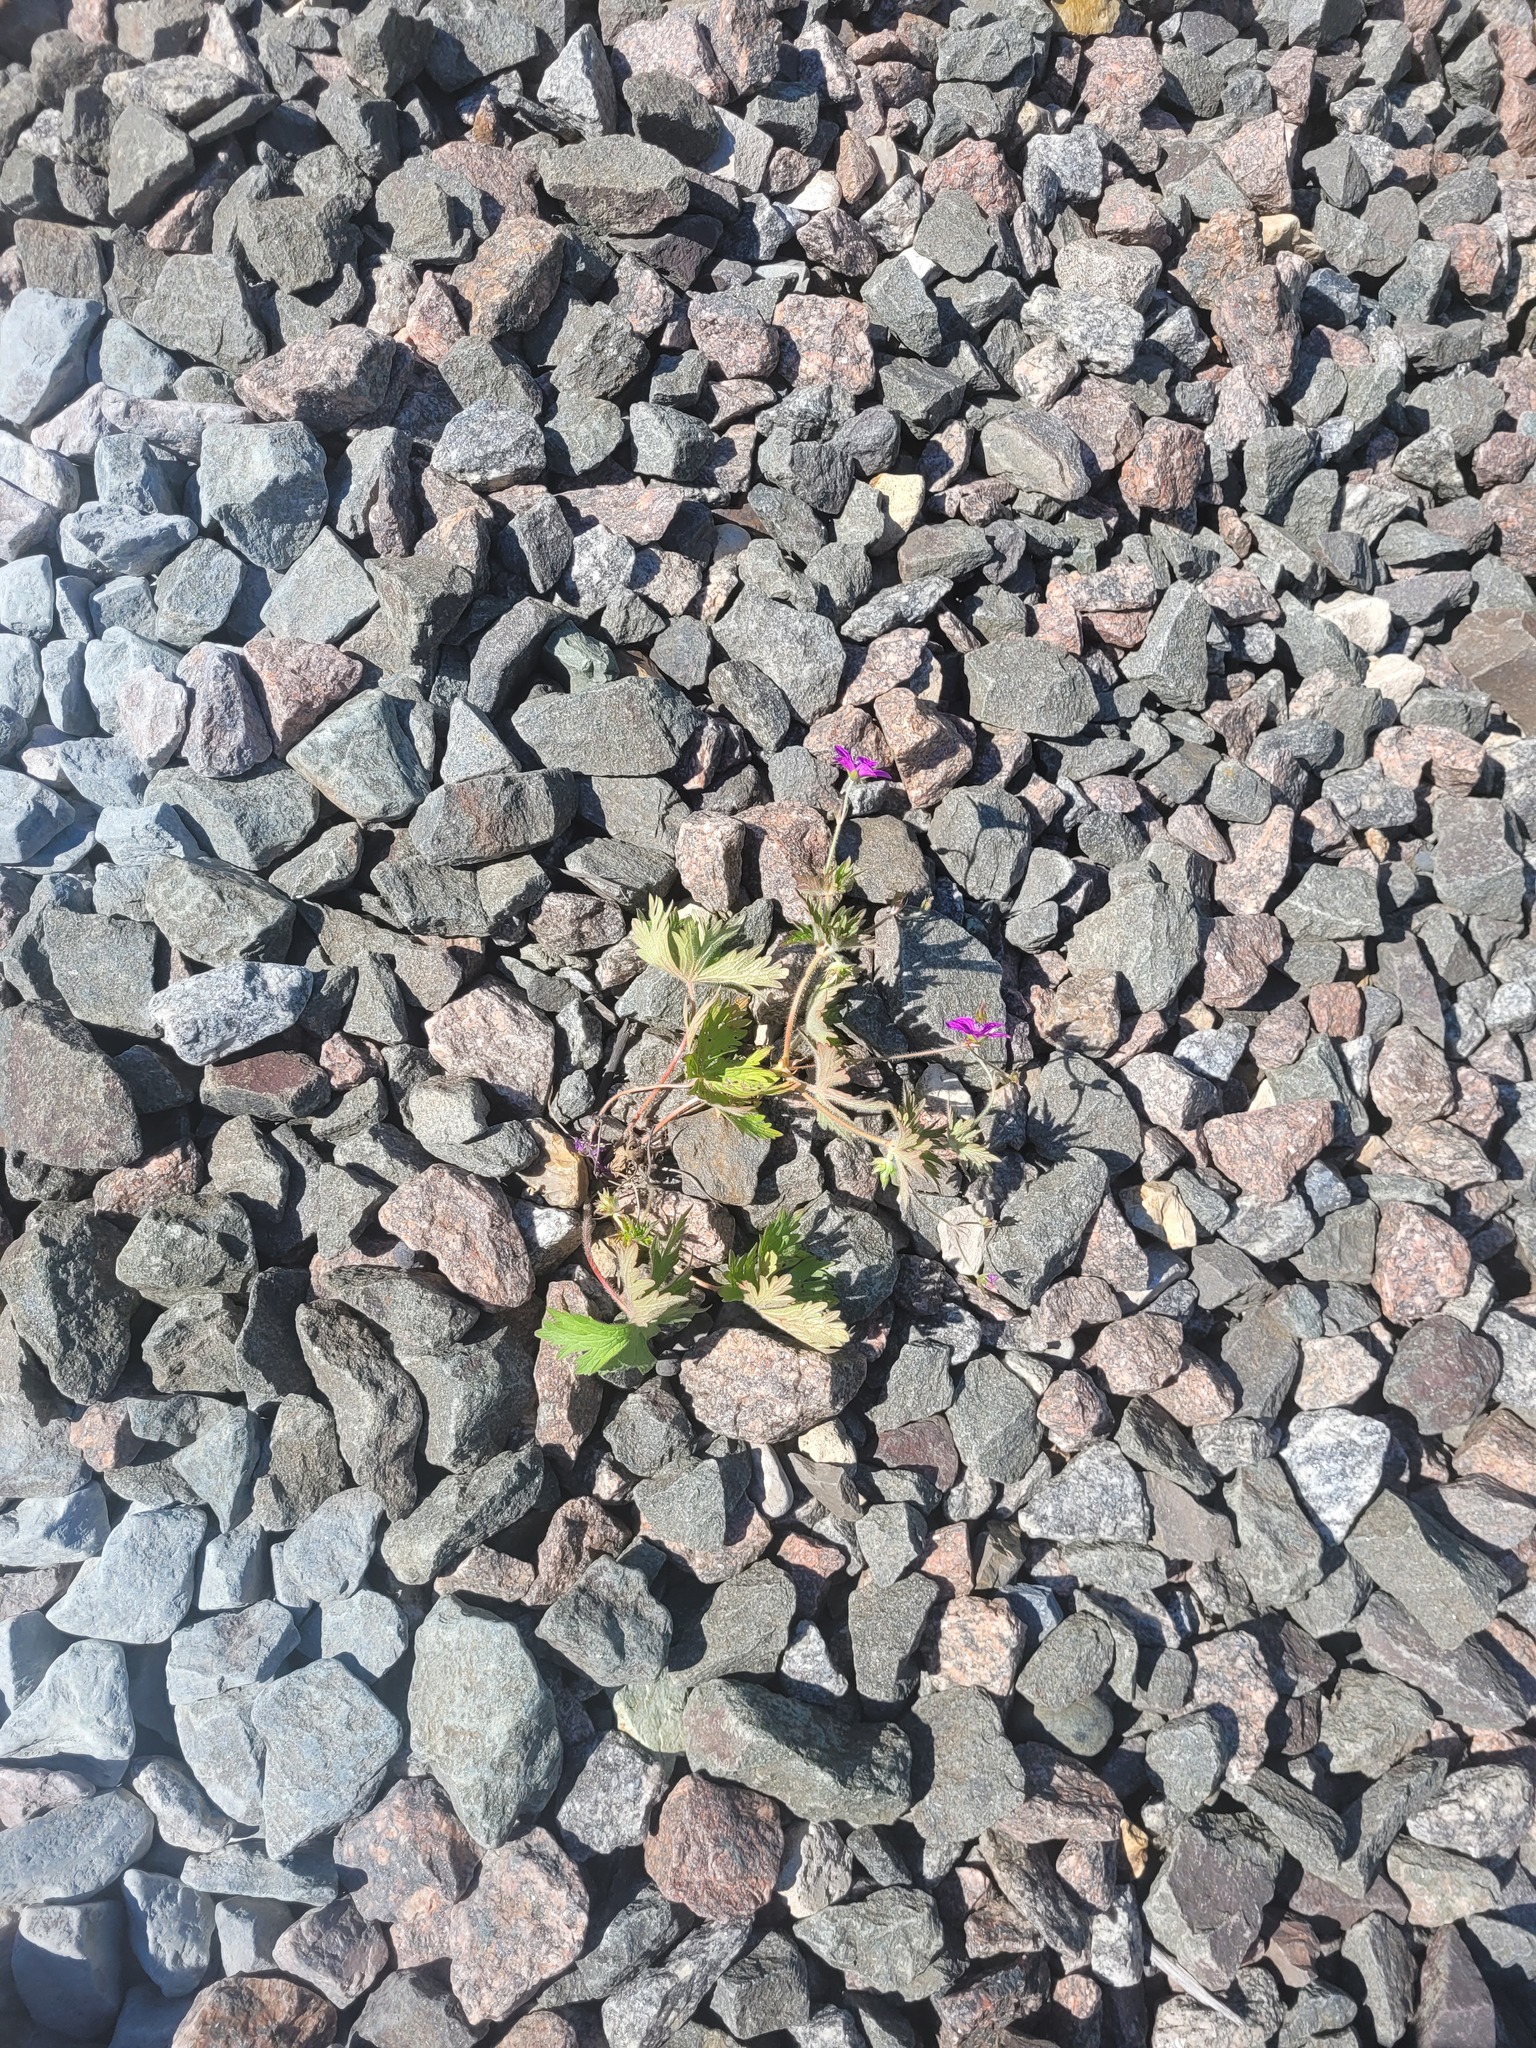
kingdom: Plantae
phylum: Tracheophyta
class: Magnoliopsida
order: Geraniales
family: Geraniaceae
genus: Geranium
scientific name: Geranium palustre
